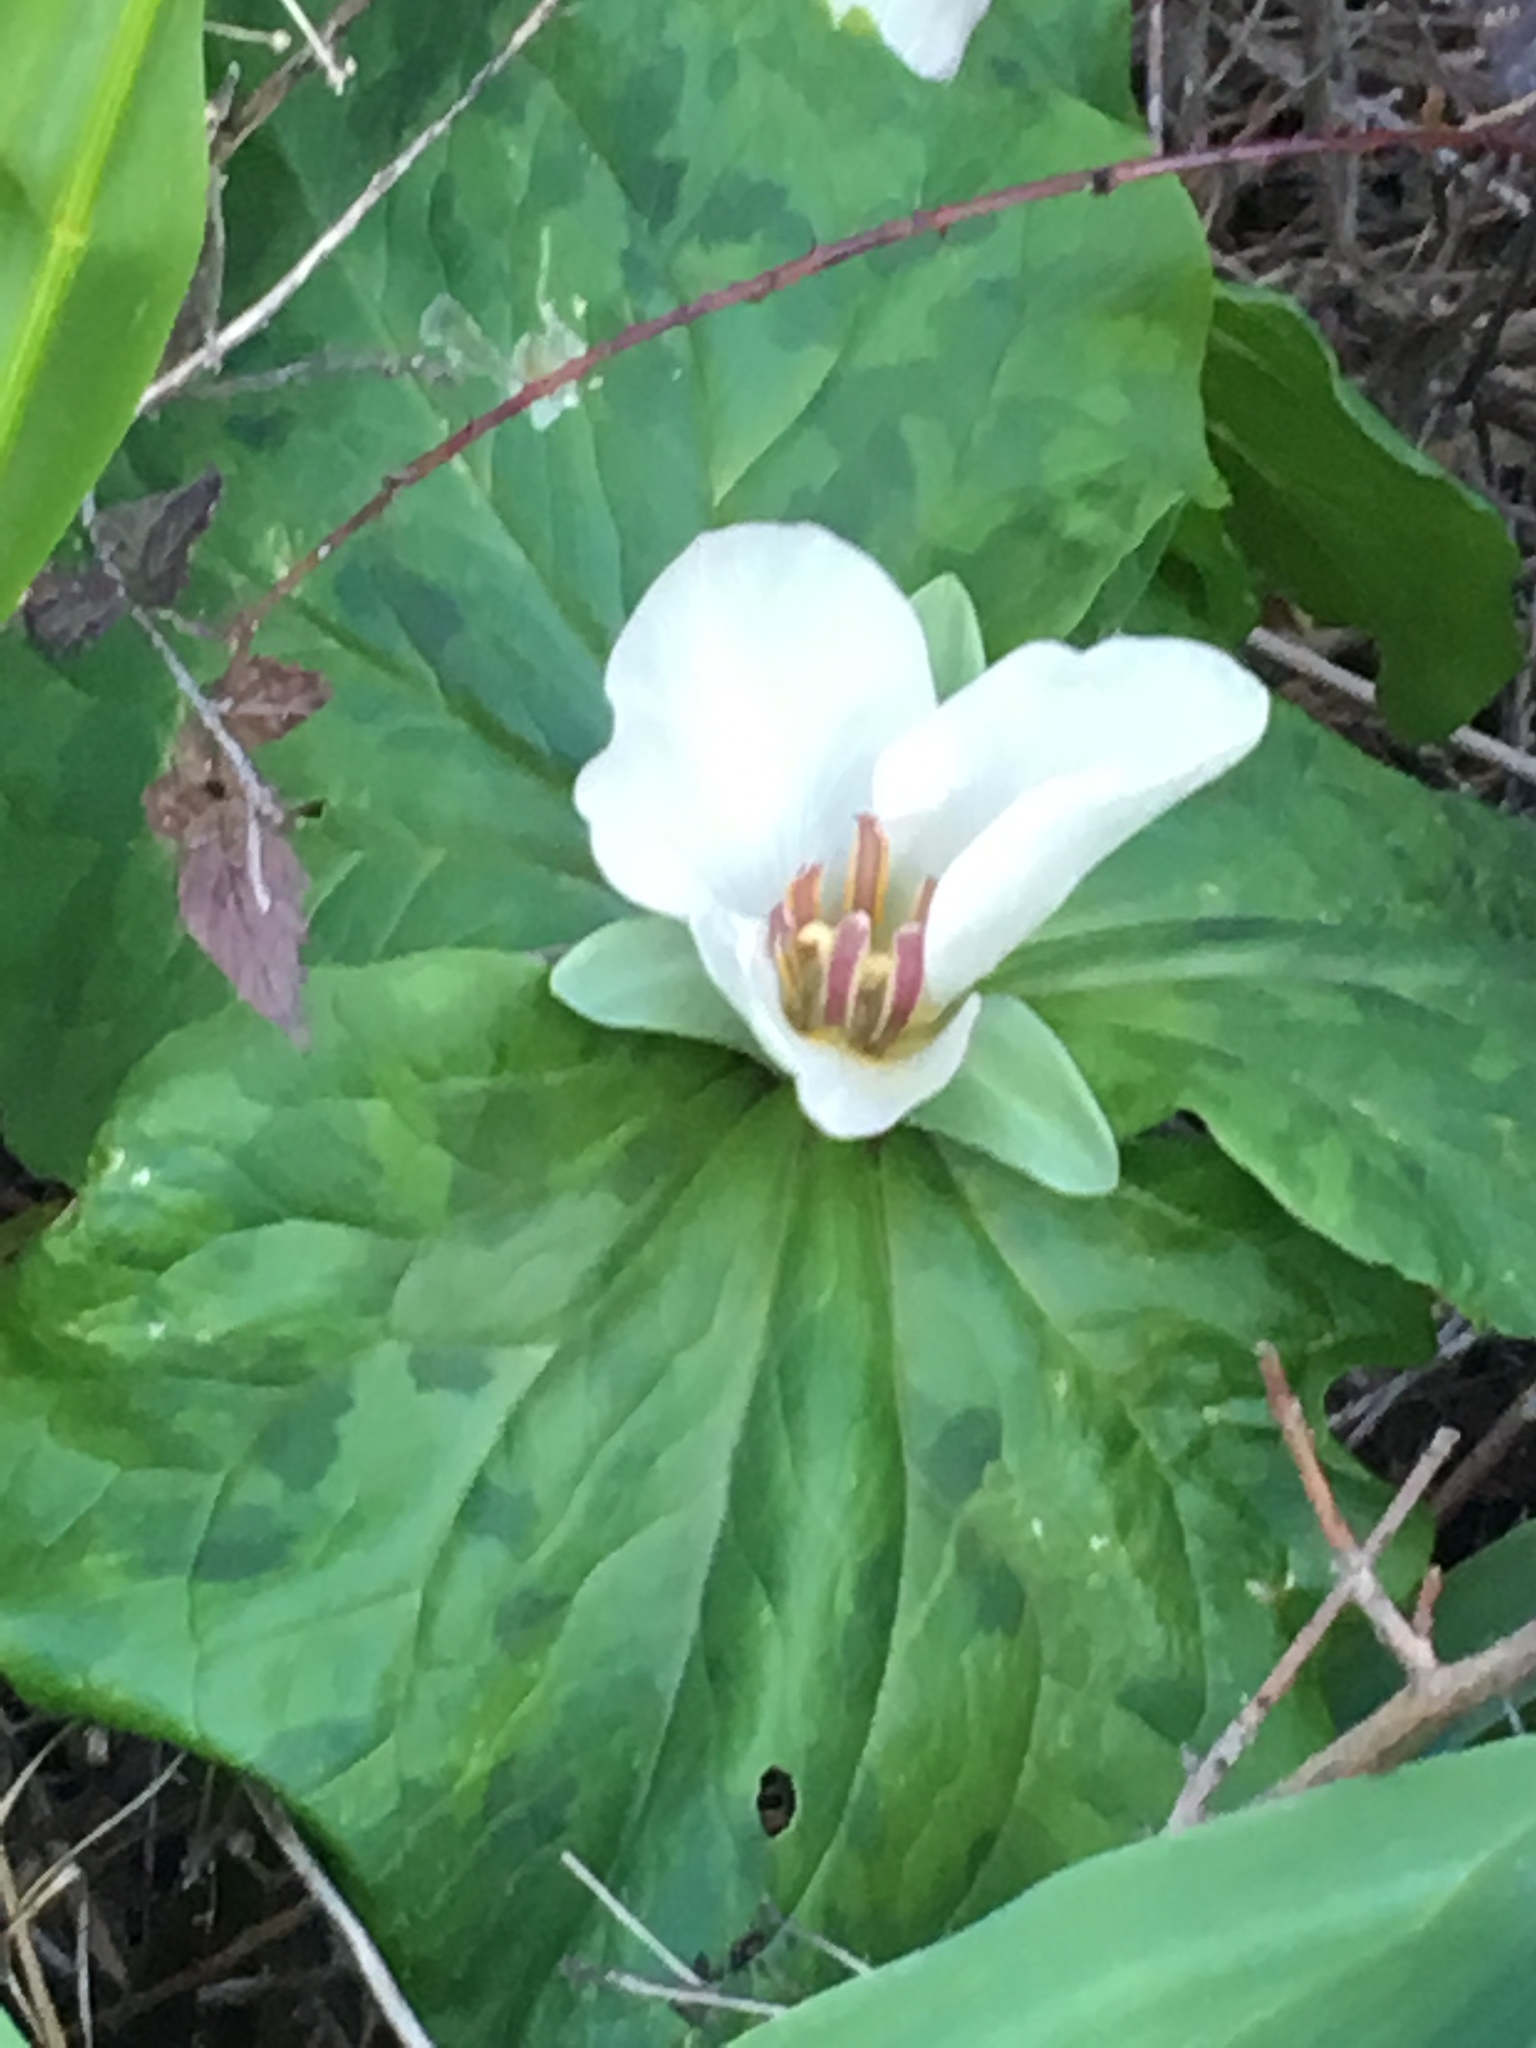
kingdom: Plantae
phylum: Tracheophyta
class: Liliopsida
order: Liliales
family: Melanthiaceae
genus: Trillium
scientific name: Trillium chloropetalum
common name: Giant trillium
